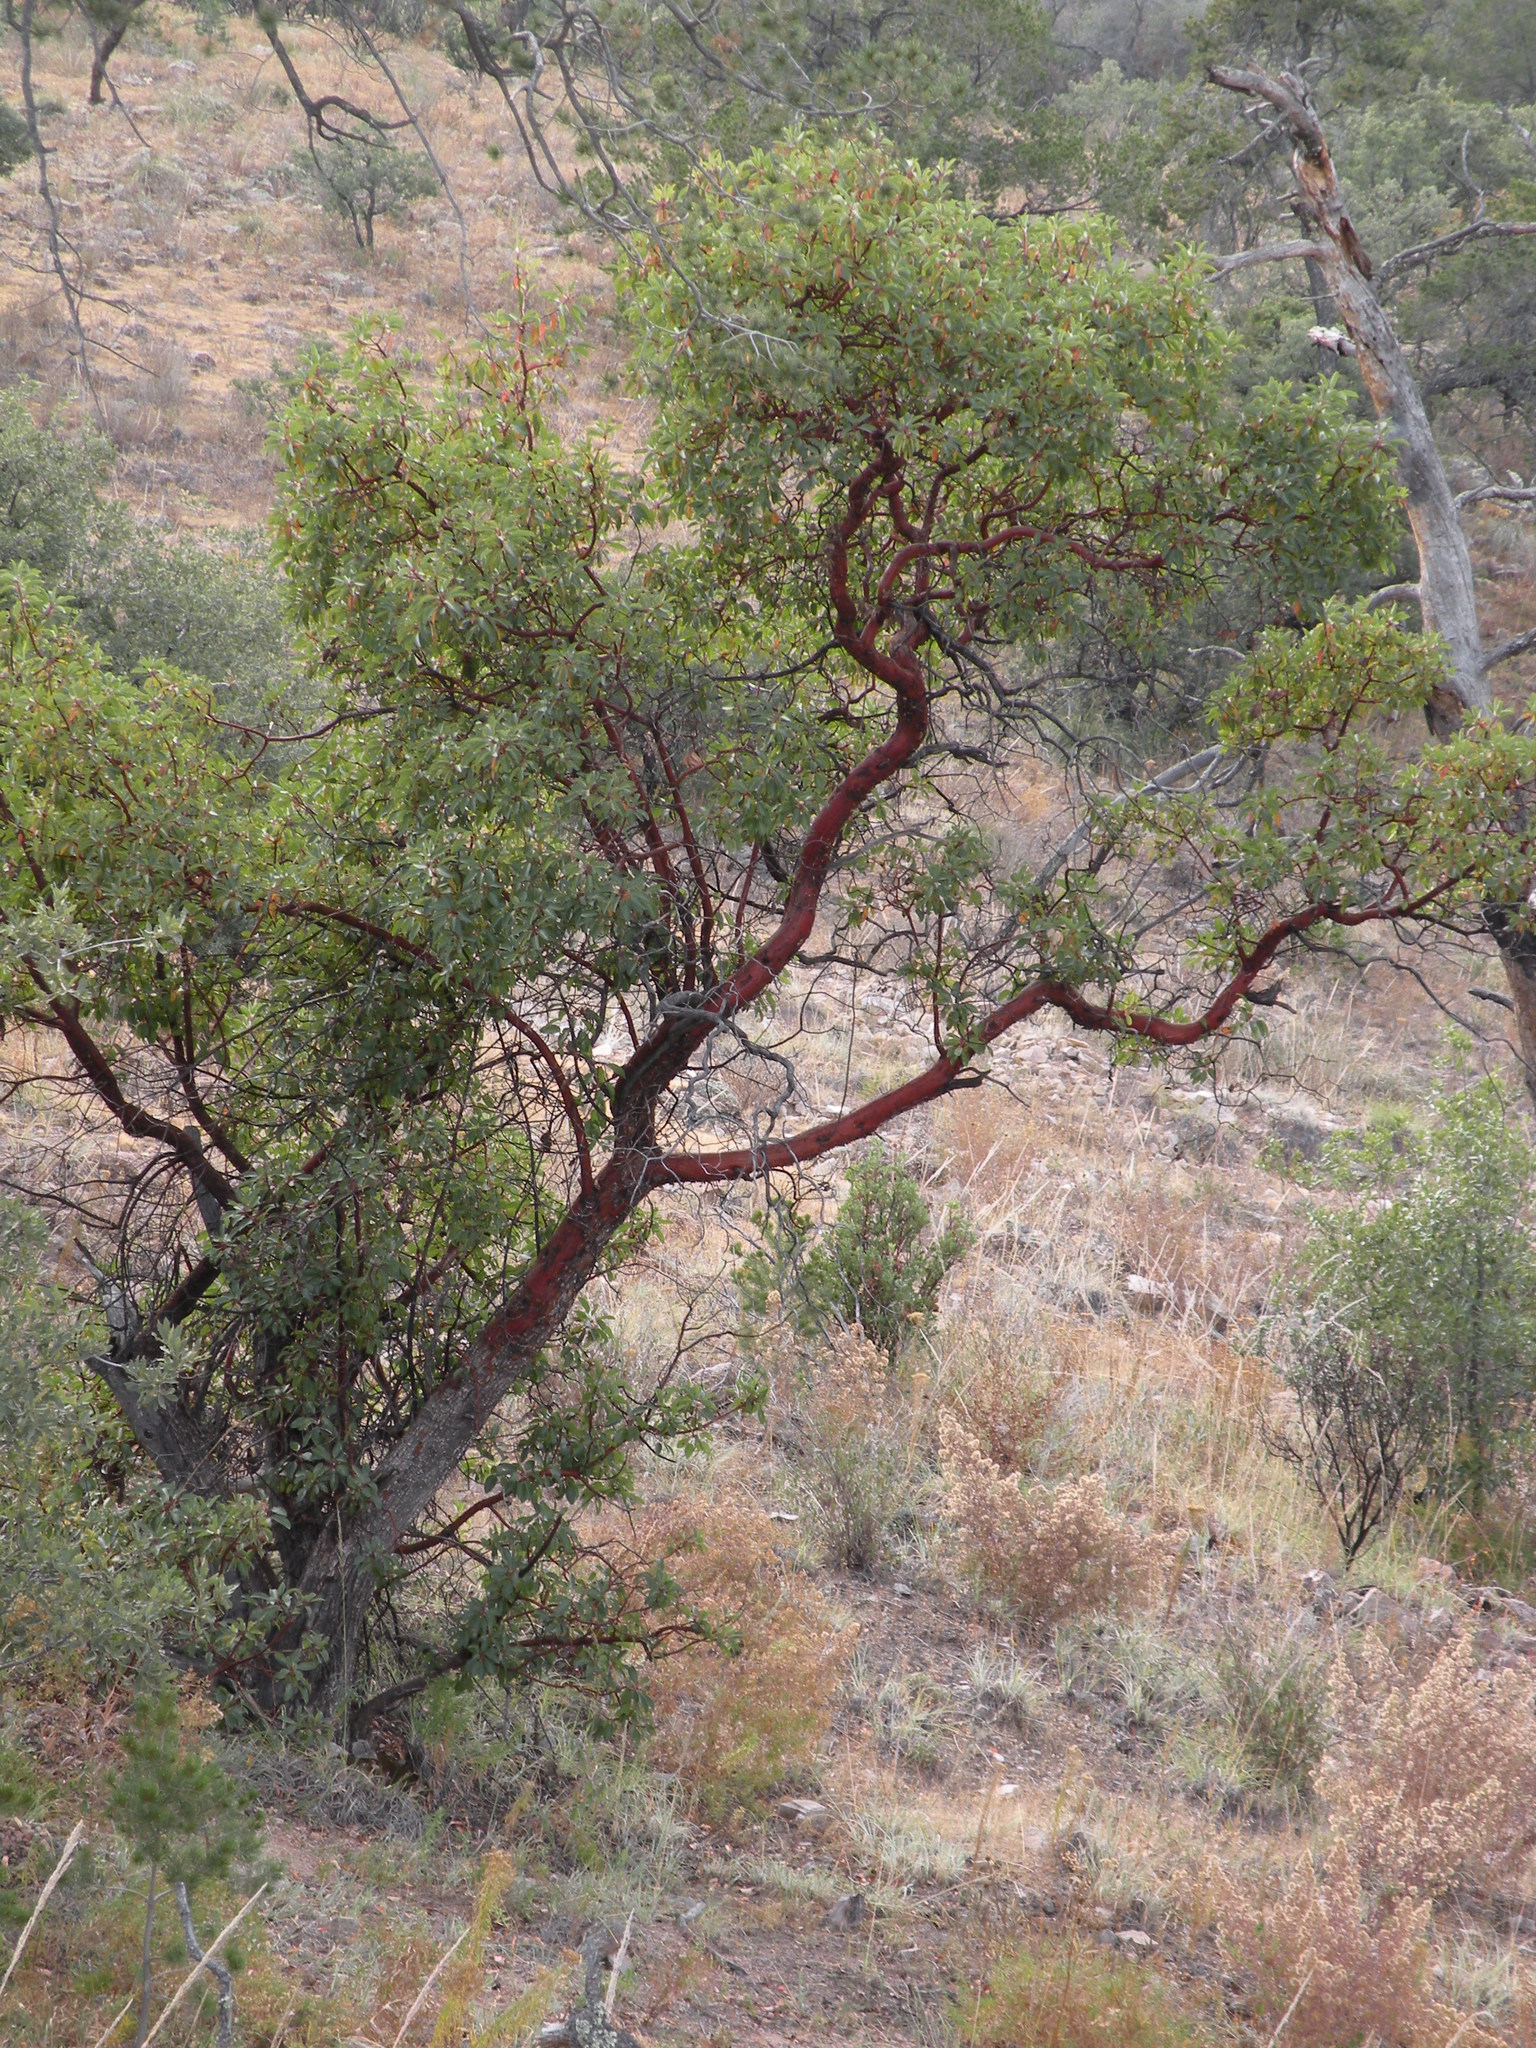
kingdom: Plantae
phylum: Tracheophyta
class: Magnoliopsida
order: Ericales
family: Ericaceae
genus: Arbutus
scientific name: Arbutus arizonica
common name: Arizona madrone
